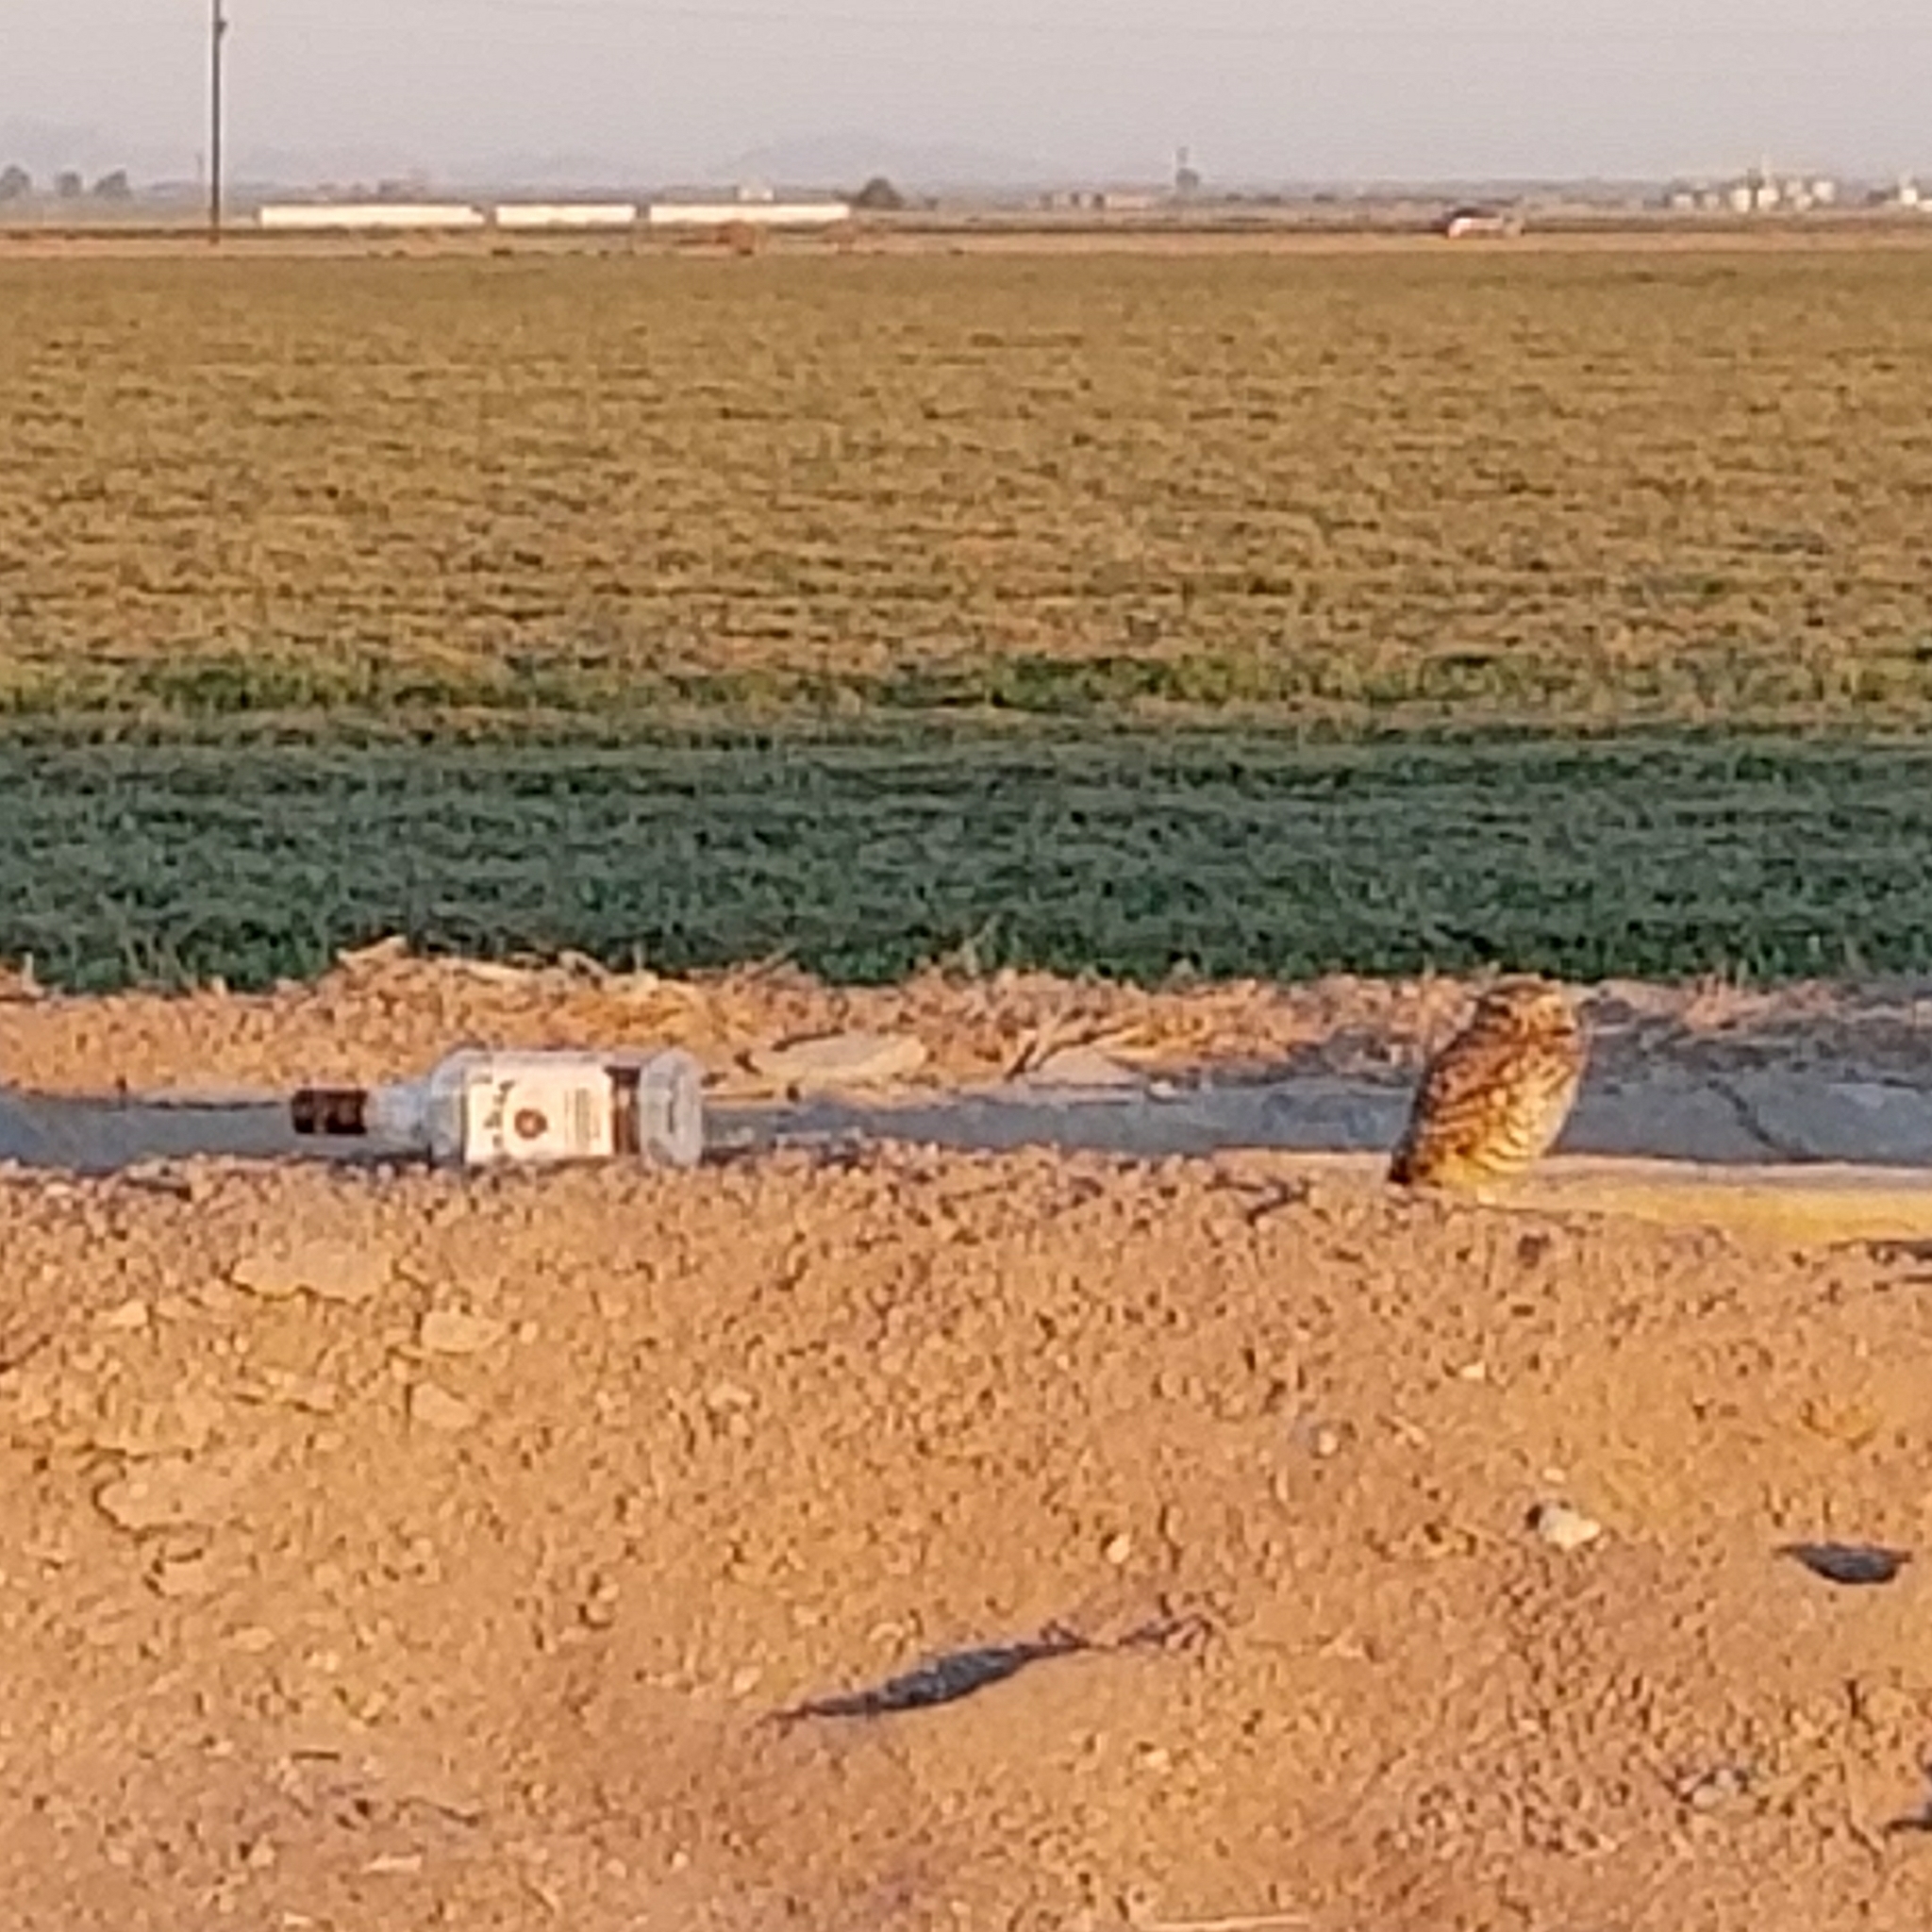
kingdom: Animalia
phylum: Chordata
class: Aves
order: Strigiformes
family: Strigidae
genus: Athene
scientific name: Athene cunicularia
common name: Burrowing owl
